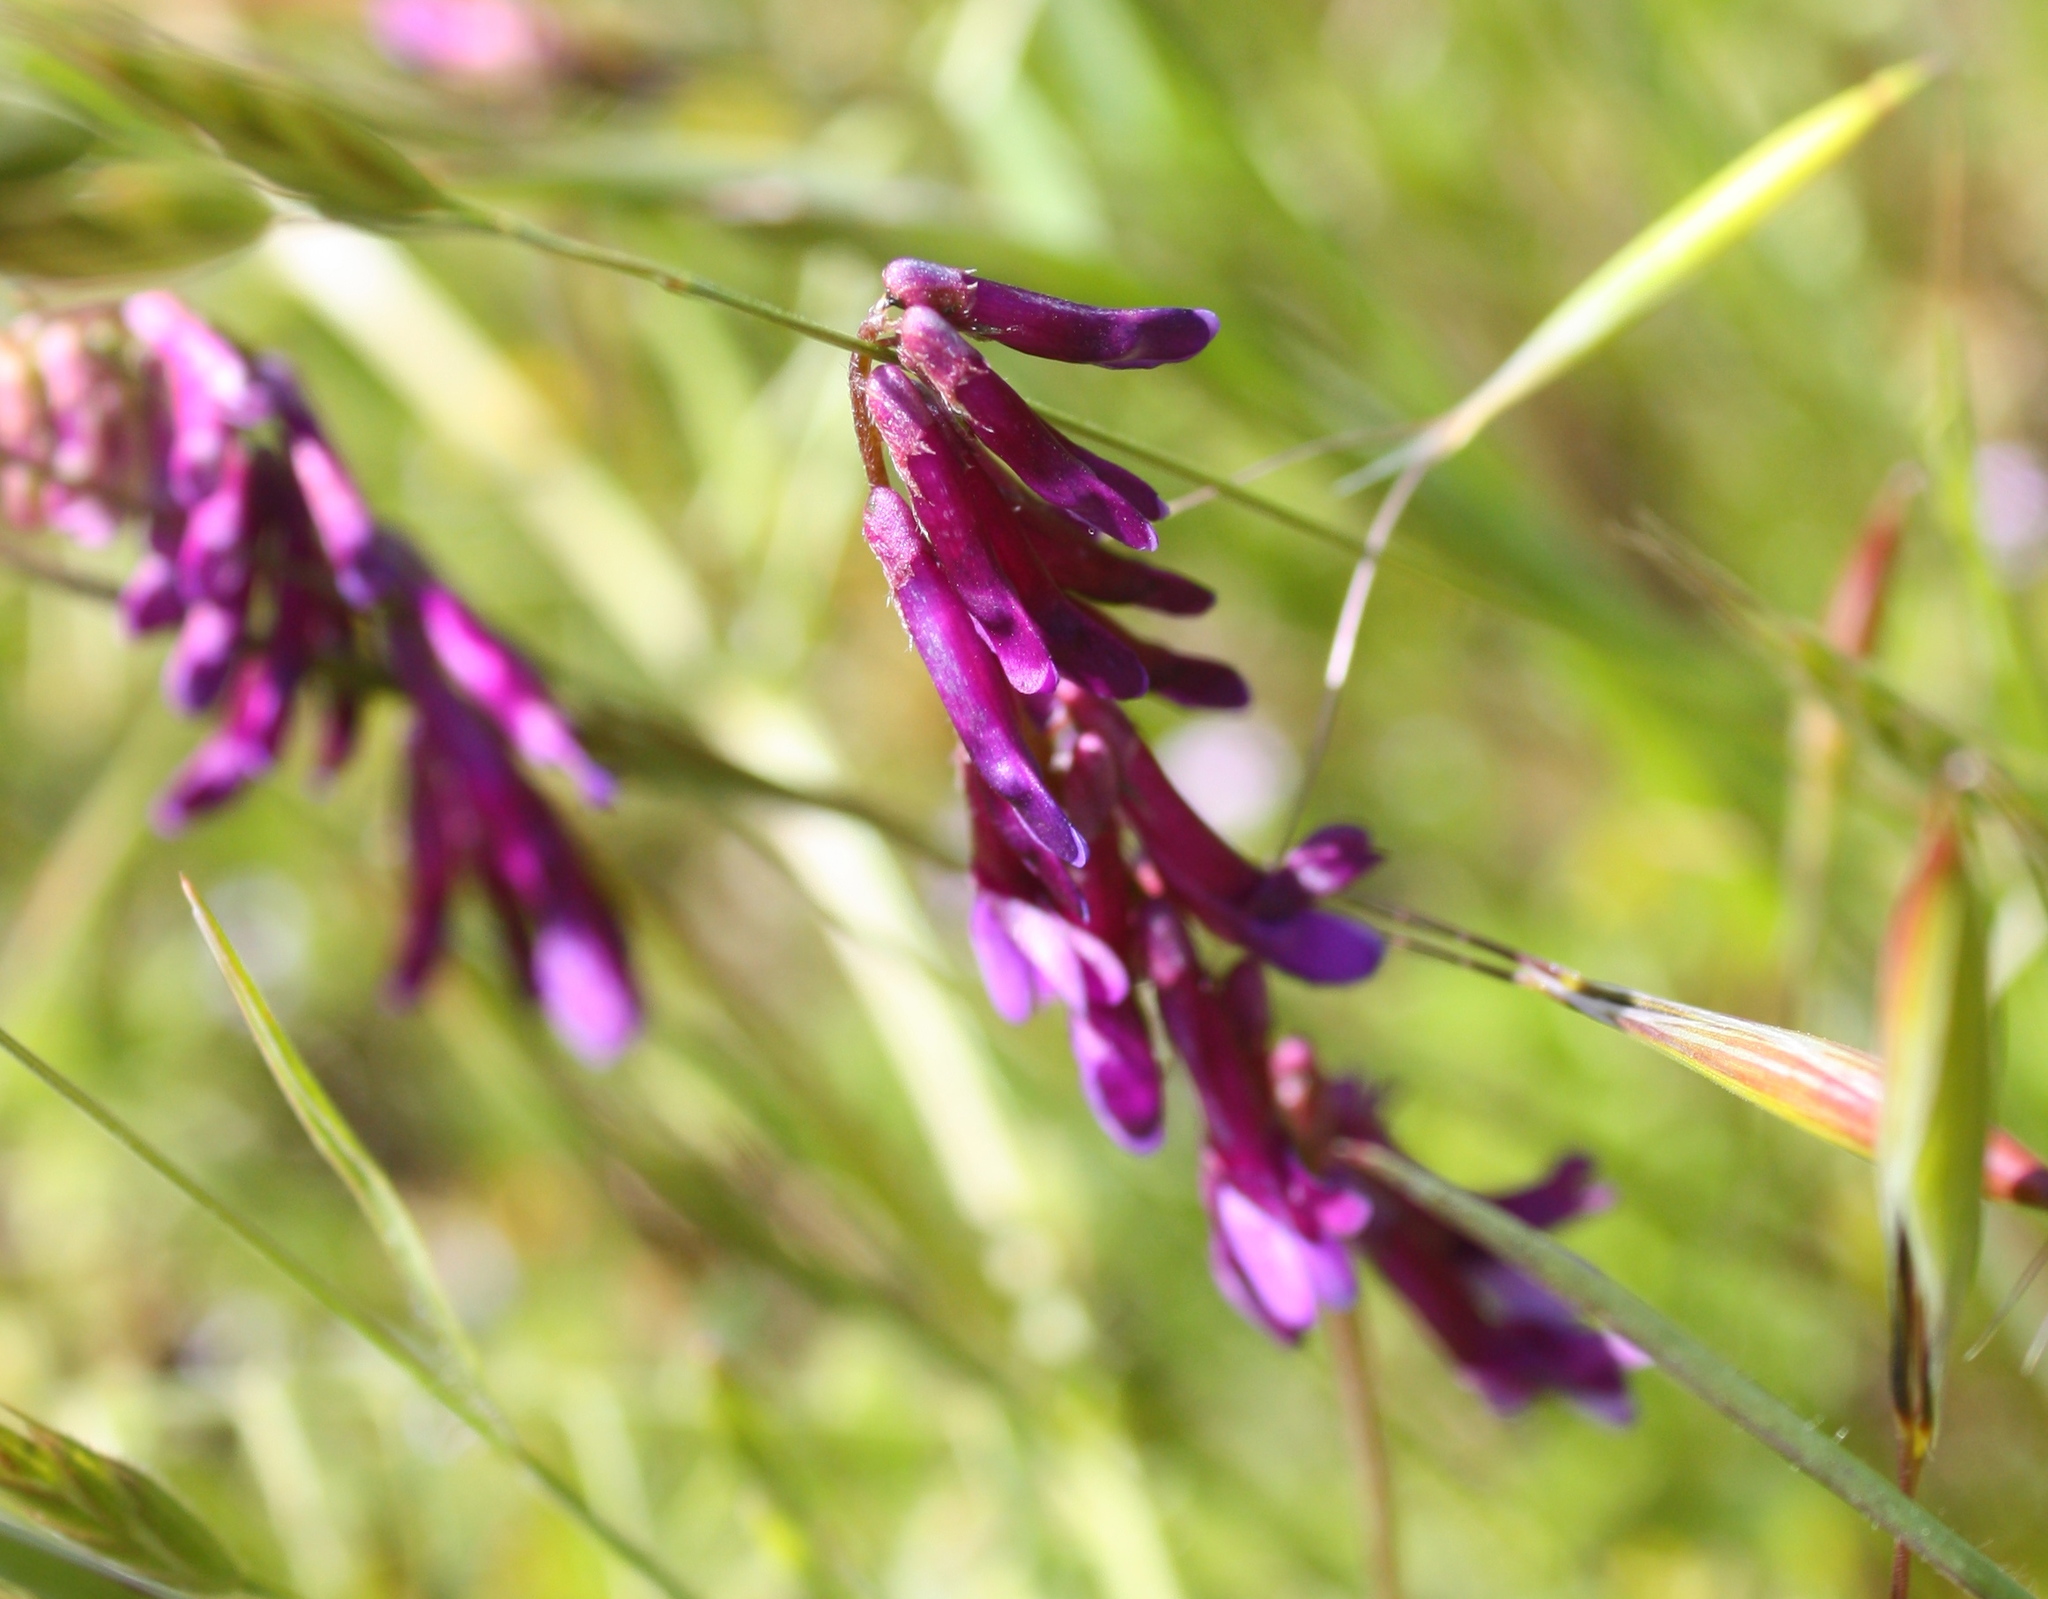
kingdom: Plantae
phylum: Tracheophyta
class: Magnoliopsida
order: Fabales
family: Fabaceae
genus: Vicia
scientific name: Vicia villosa
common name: Fodder vetch
